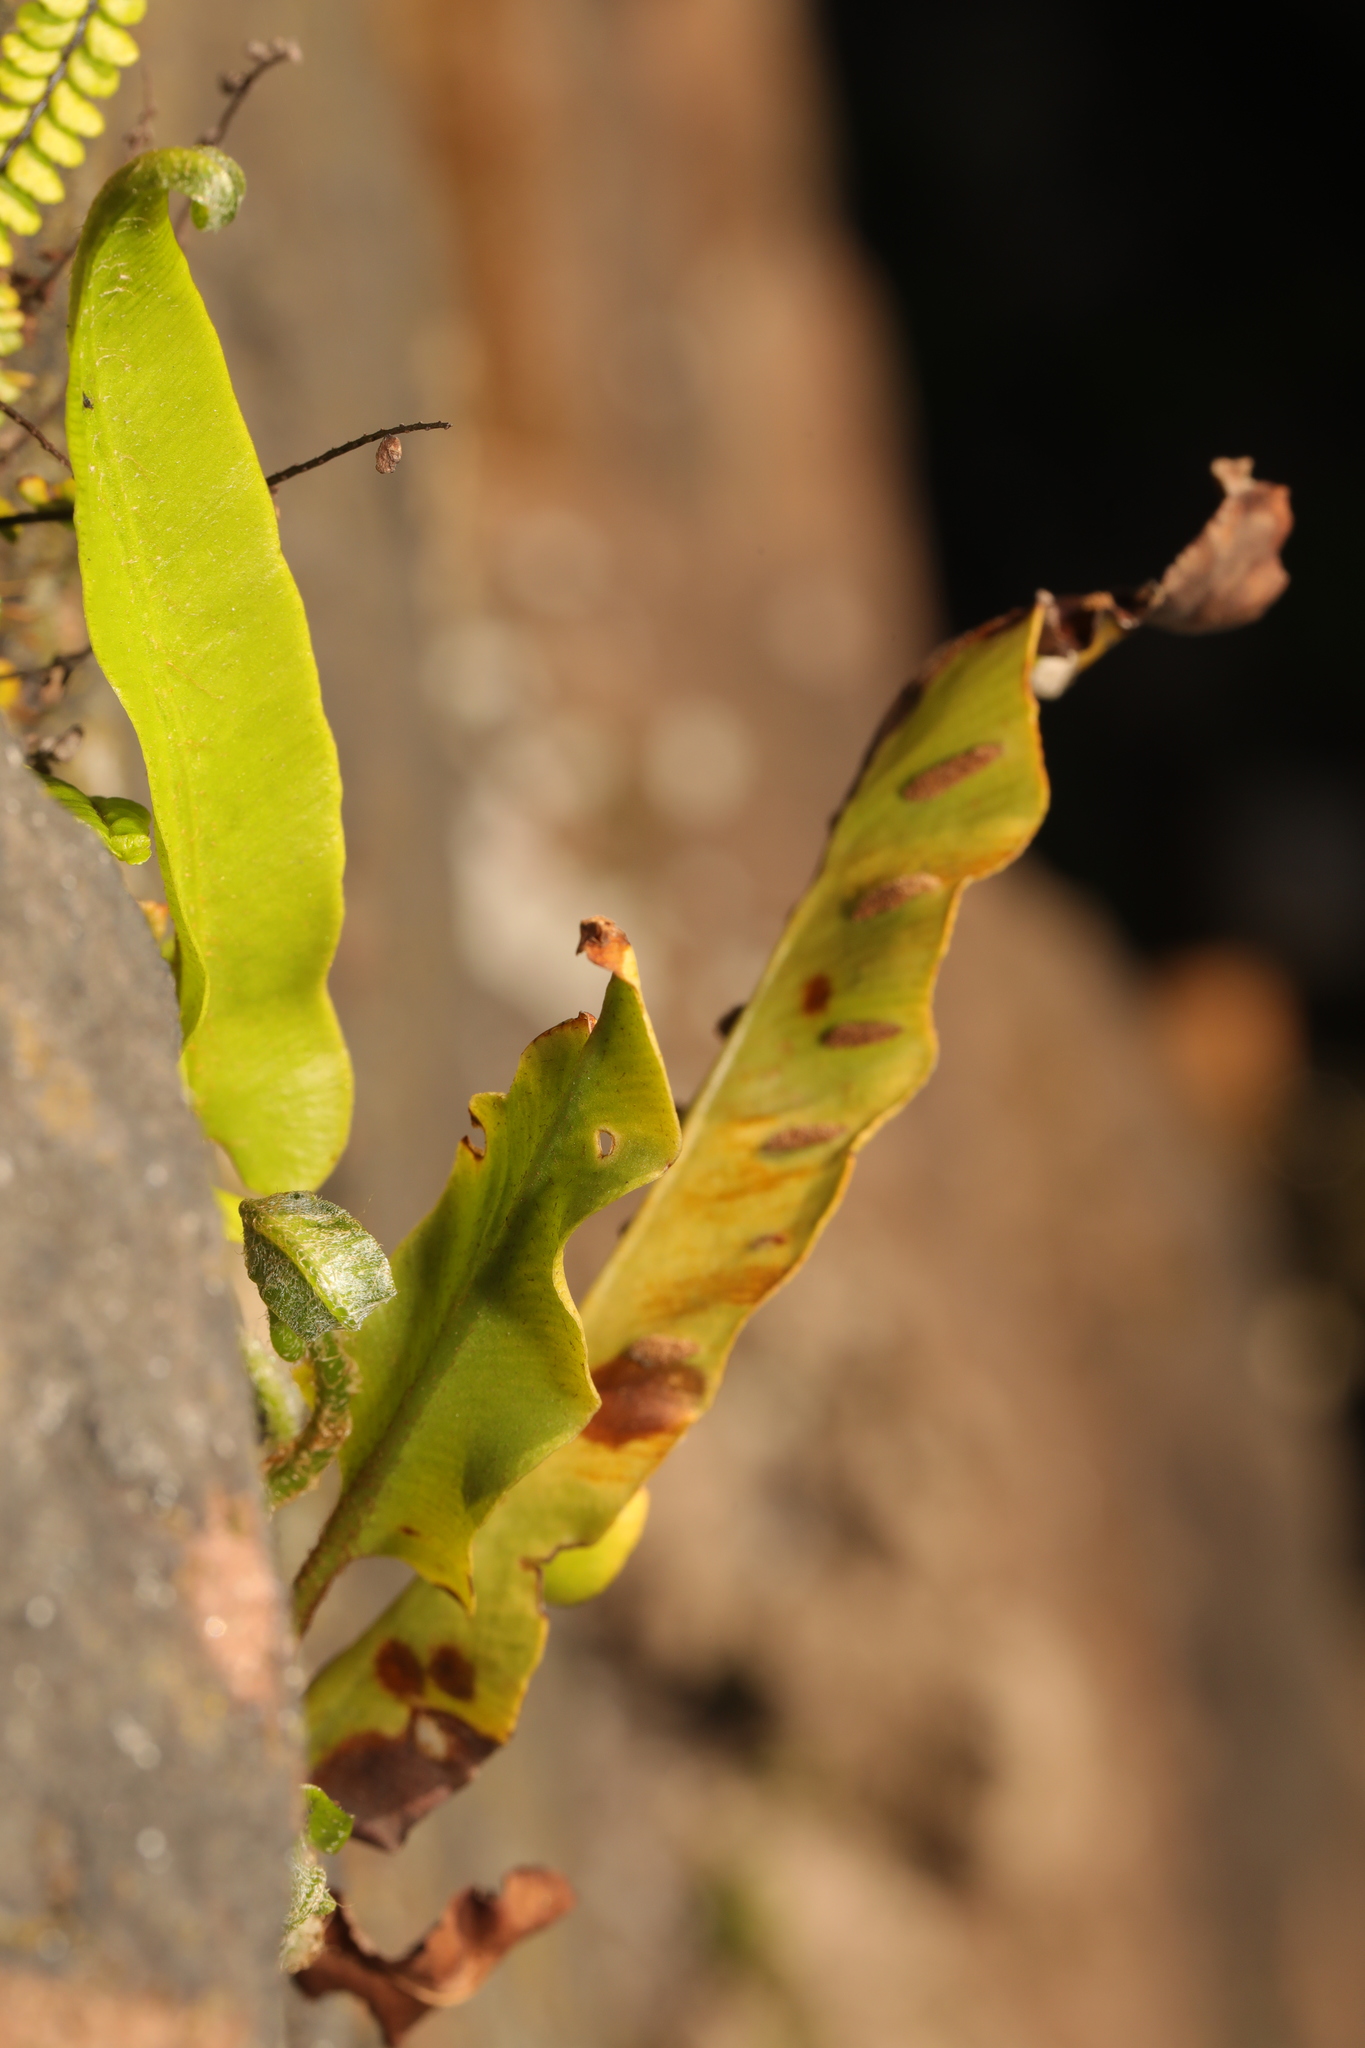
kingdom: Plantae
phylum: Tracheophyta
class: Polypodiopsida
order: Polypodiales
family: Aspleniaceae
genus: Asplenium
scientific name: Asplenium scolopendrium
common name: Hart's-tongue fern
